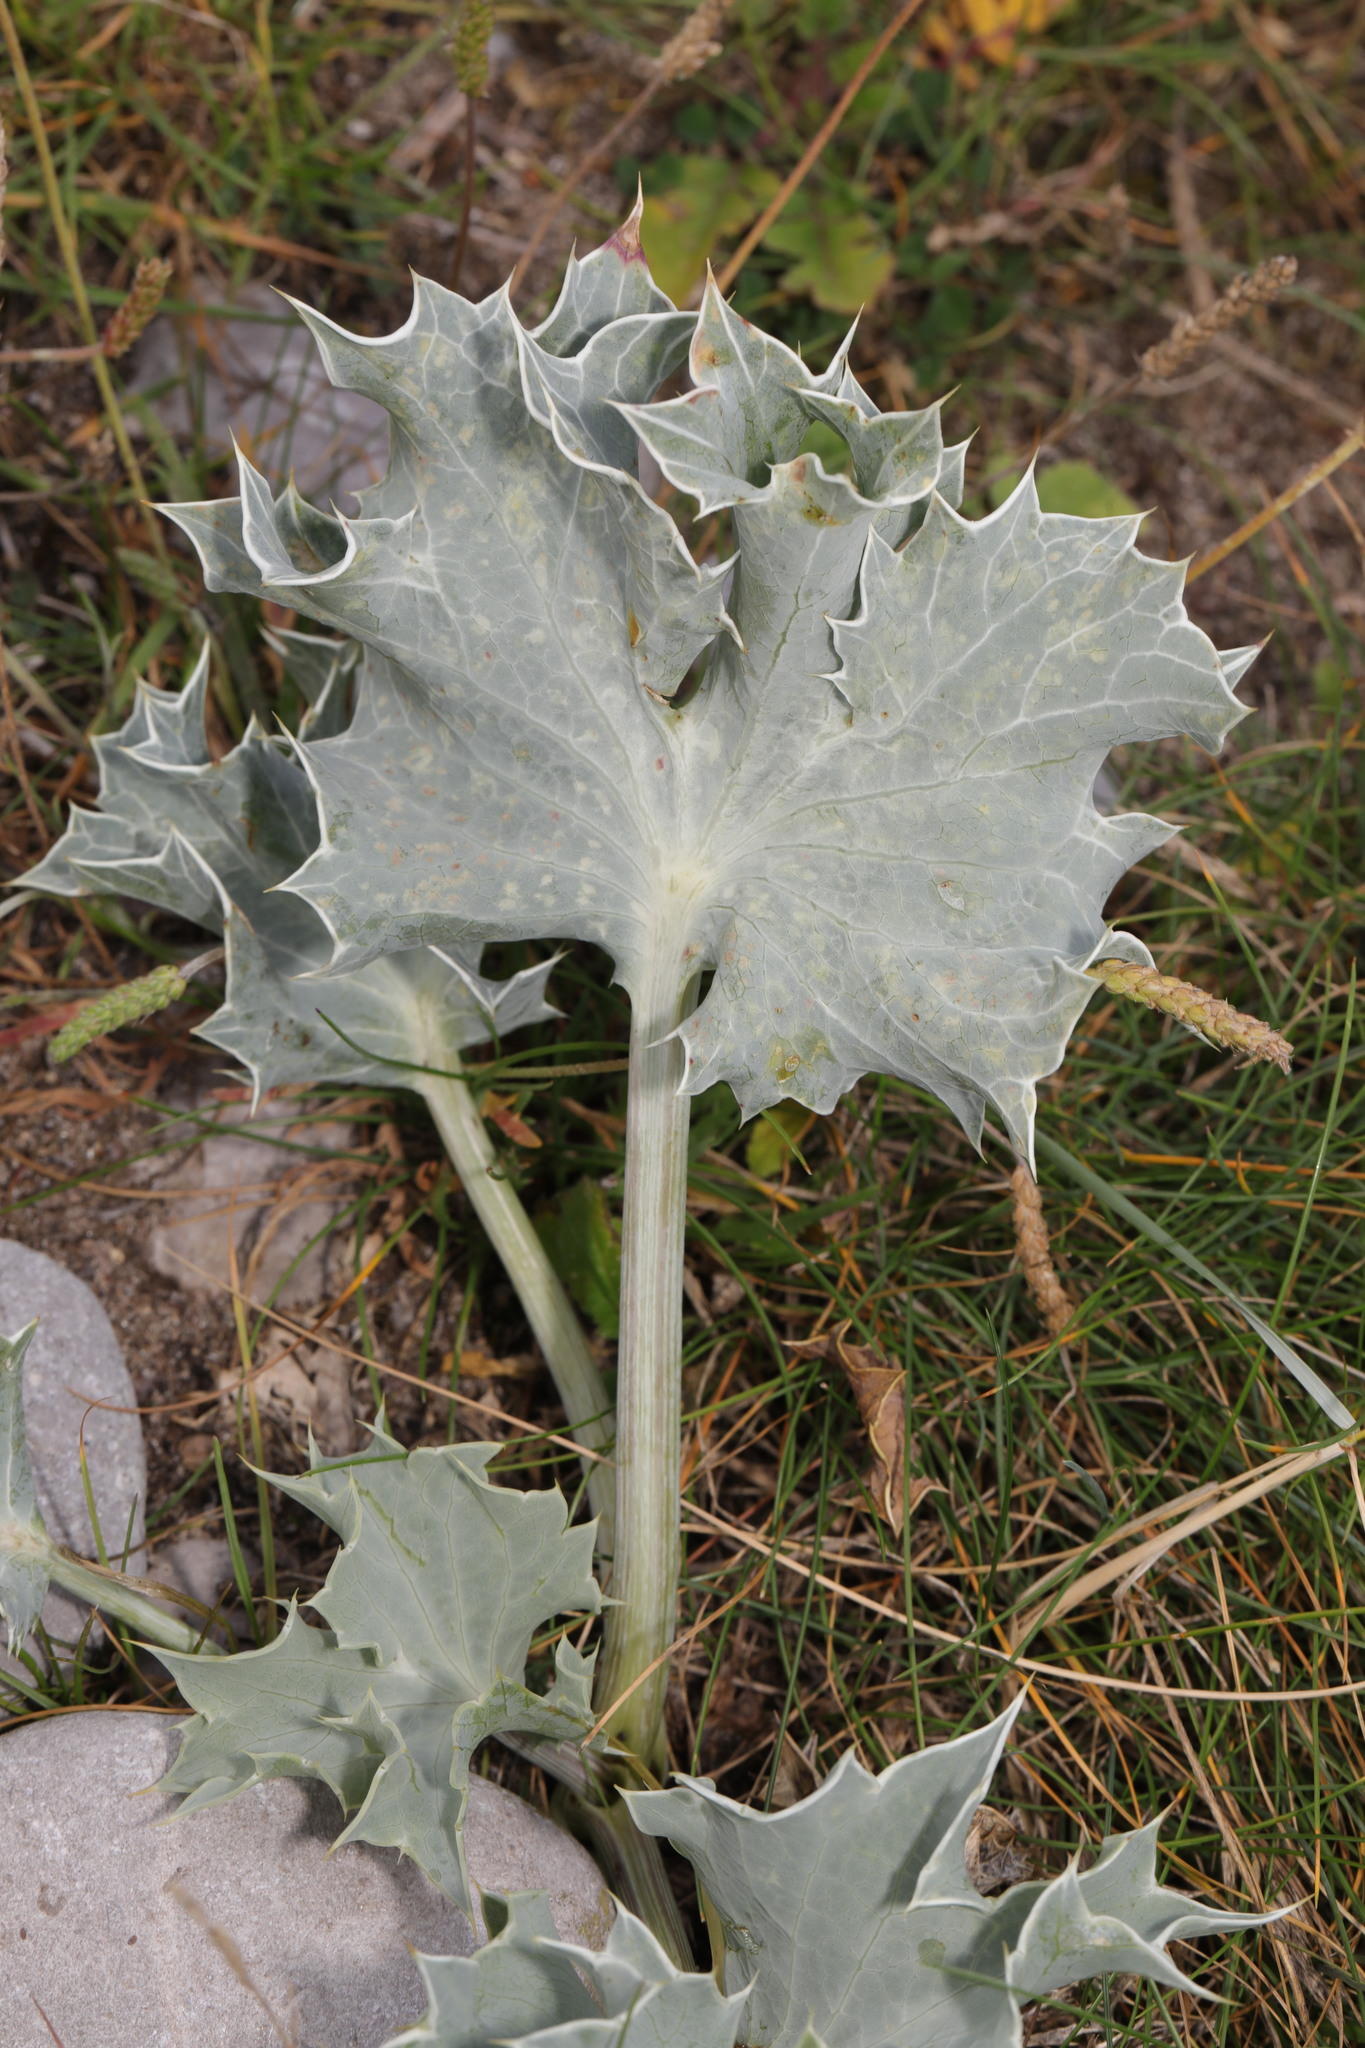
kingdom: Plantae
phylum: Tracheophyta
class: Magnoliopsida
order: Apiales
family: Apiaceae
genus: Eryngium
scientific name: Eryngium maritimum
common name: Sea-holly
